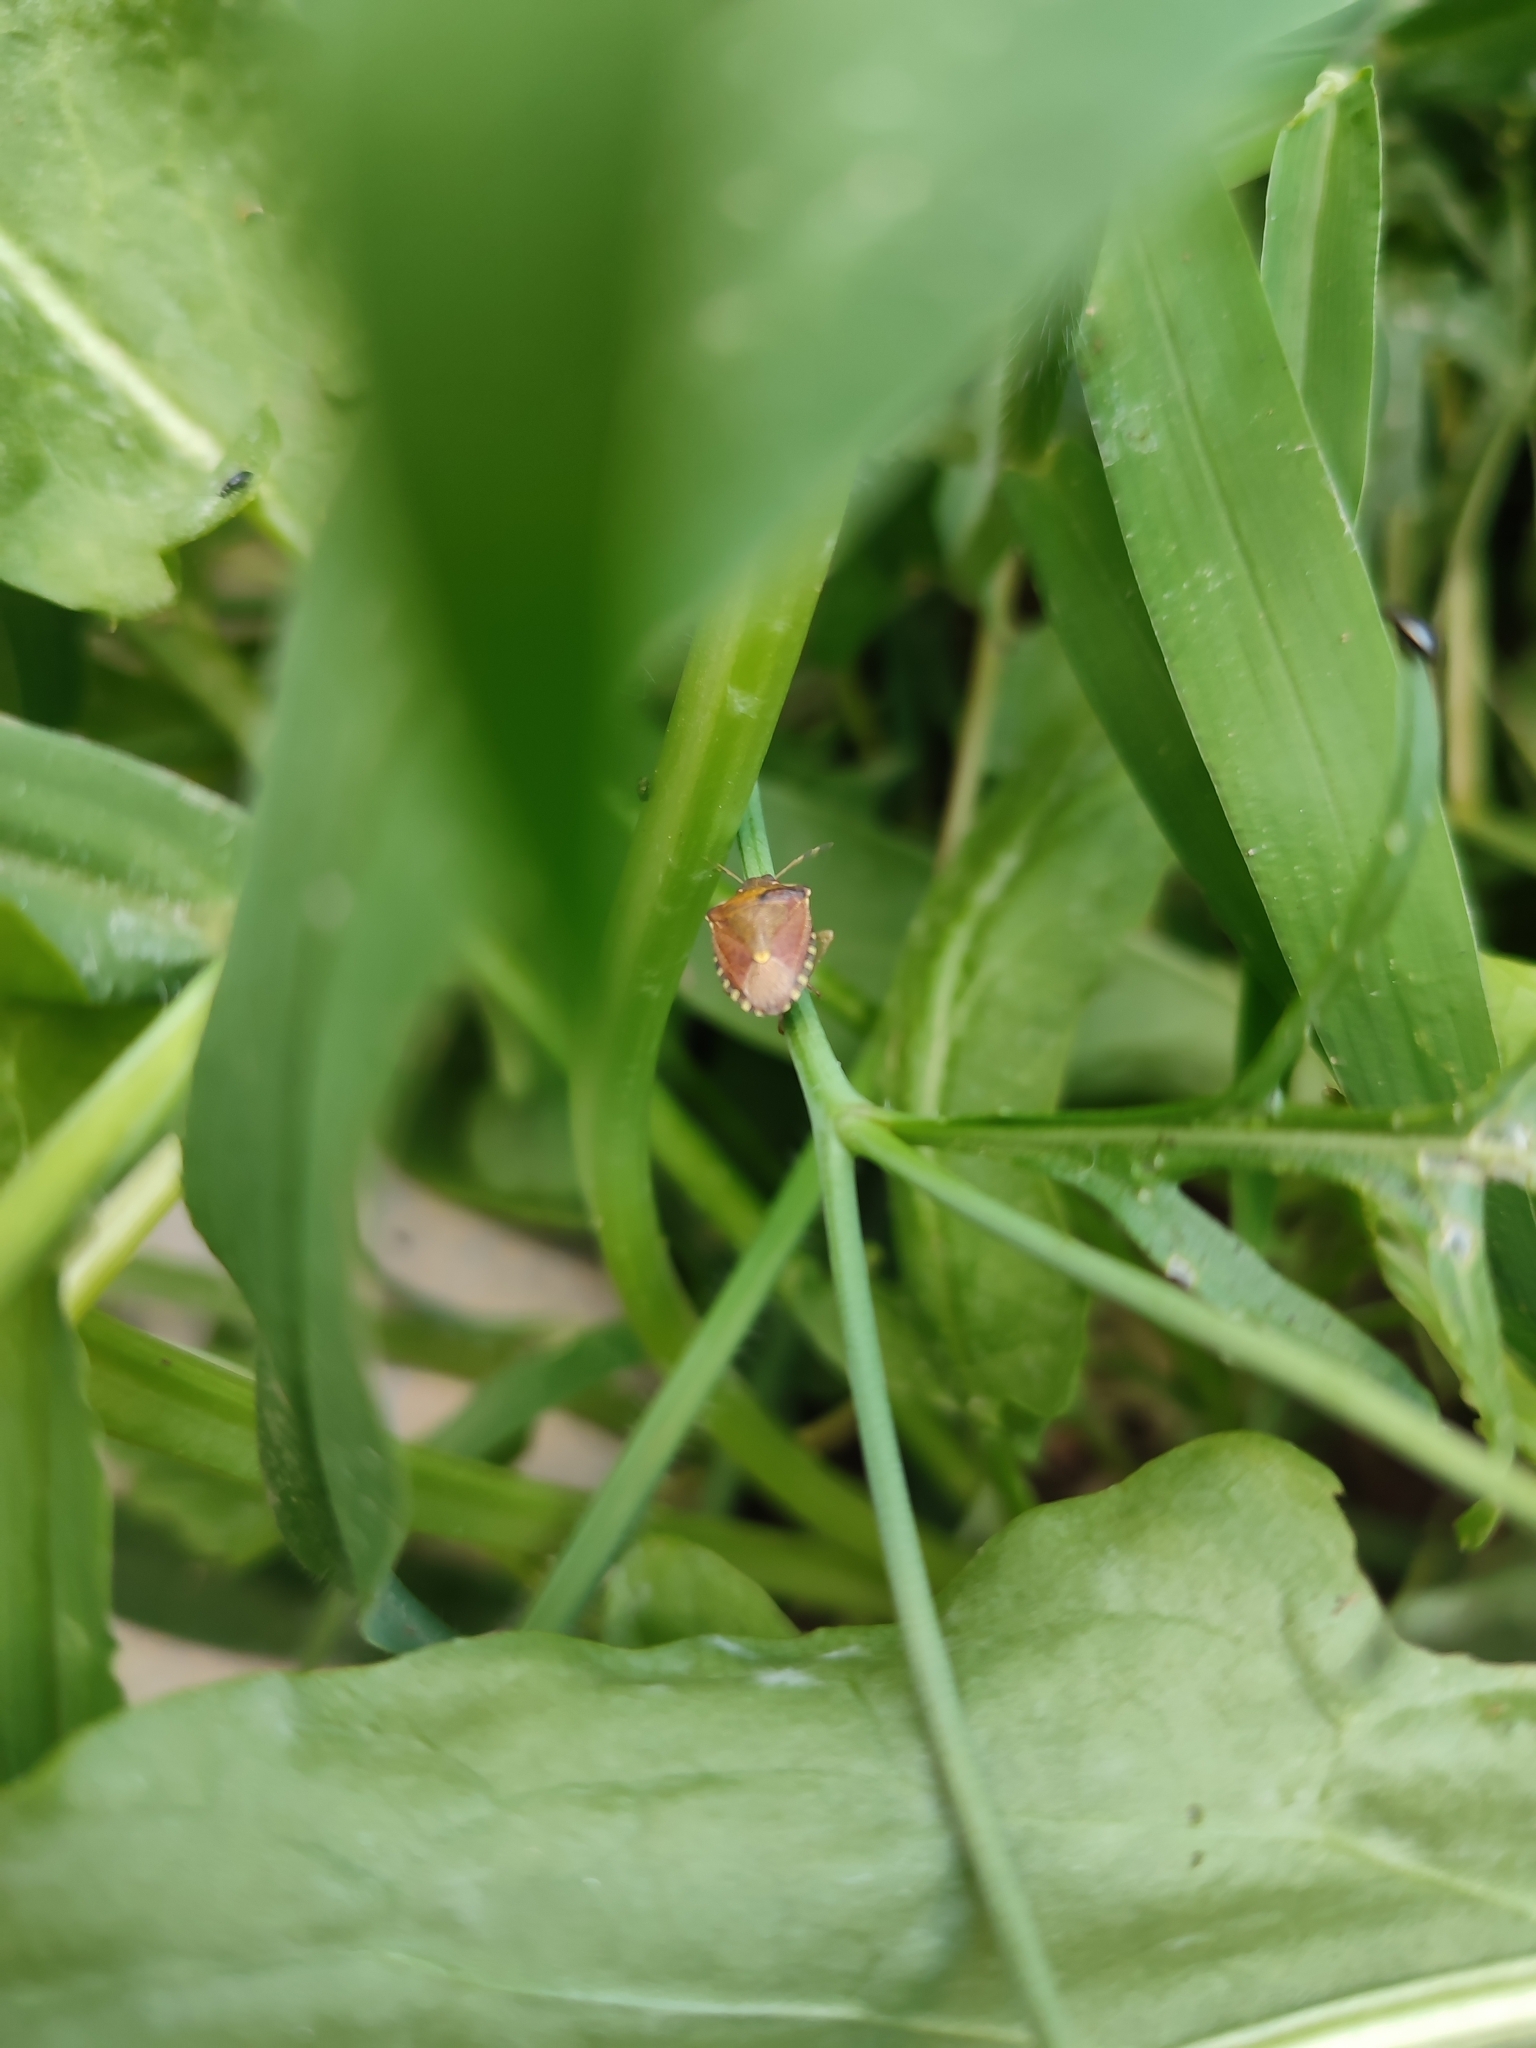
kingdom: Animalia
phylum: Arthropoda
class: Insecta
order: Hemiptera
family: Pentatomidae
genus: Holcostethus
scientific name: Holcostethus strictus
